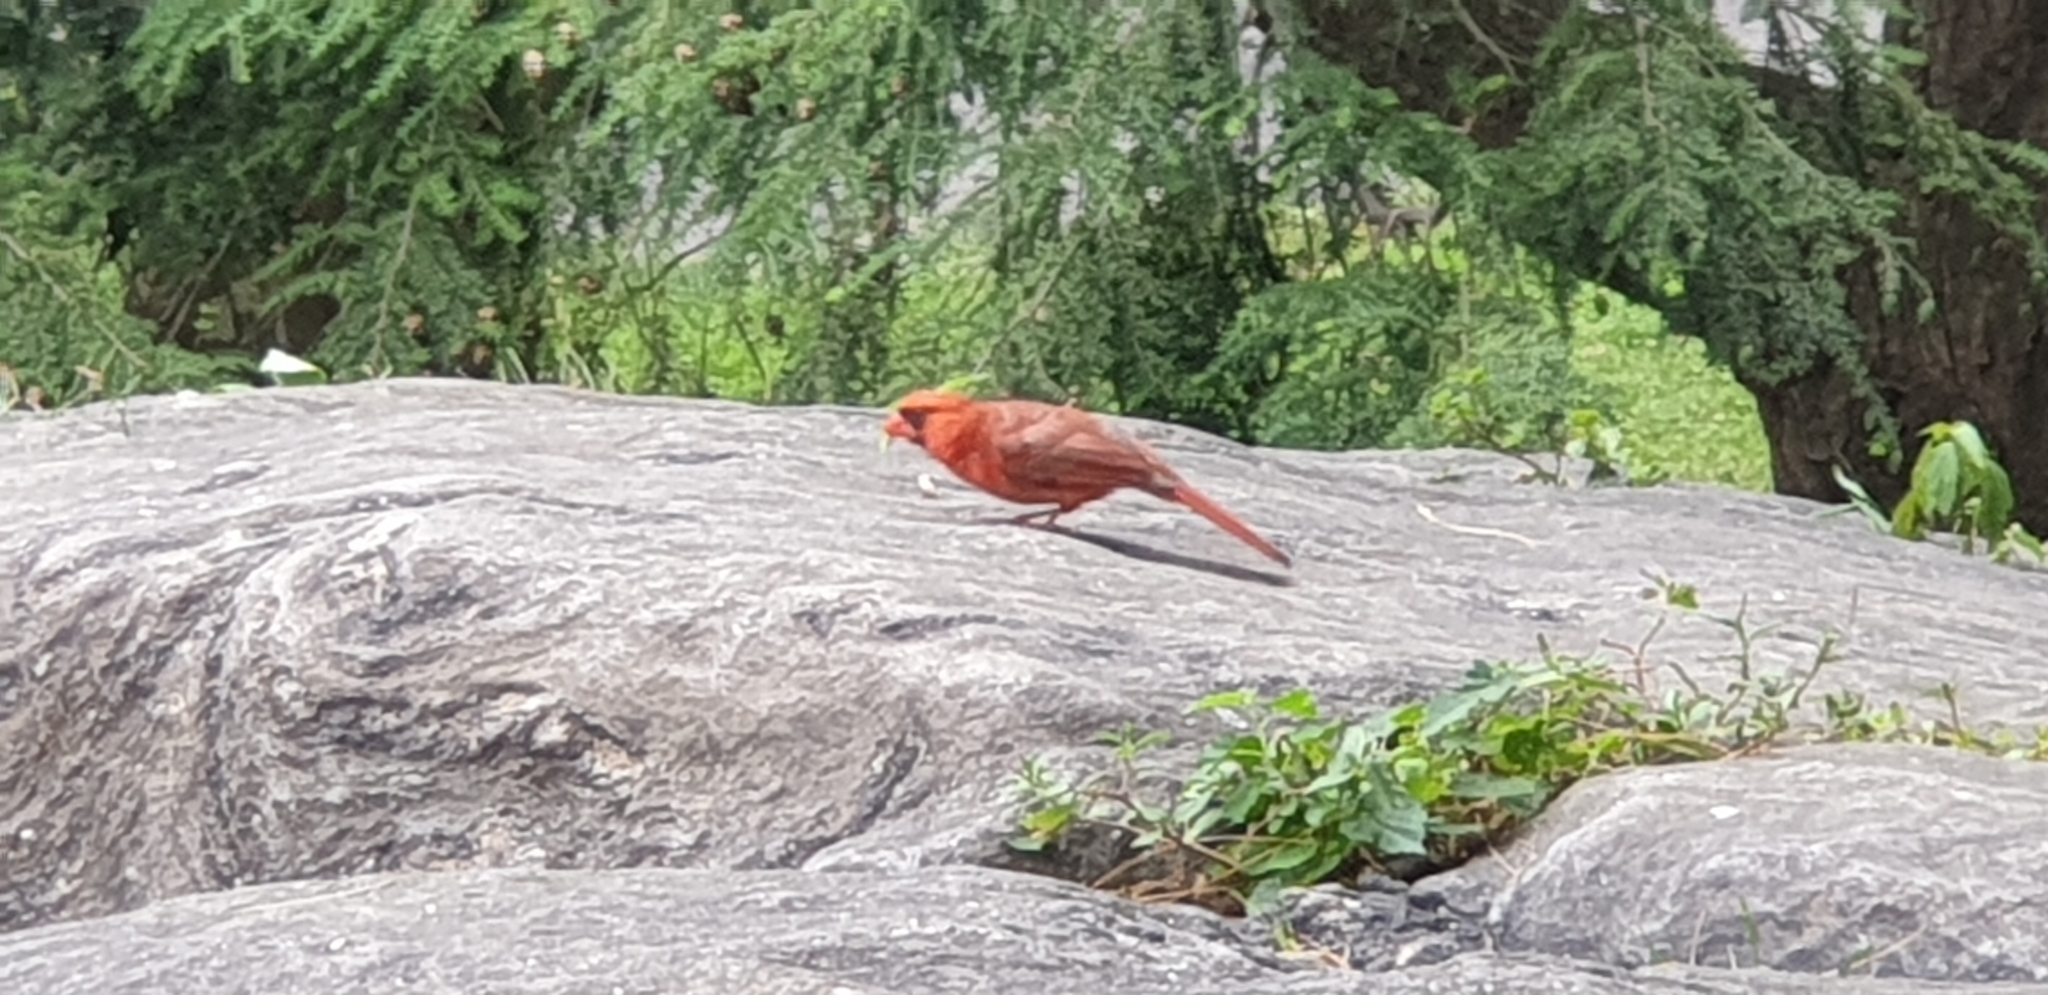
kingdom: Animalia
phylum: Chordata
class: Aves
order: Passeriformes
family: Cardinalidae
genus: Cardinalis
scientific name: Cardinalis cardinalis
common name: Northern cardinal
